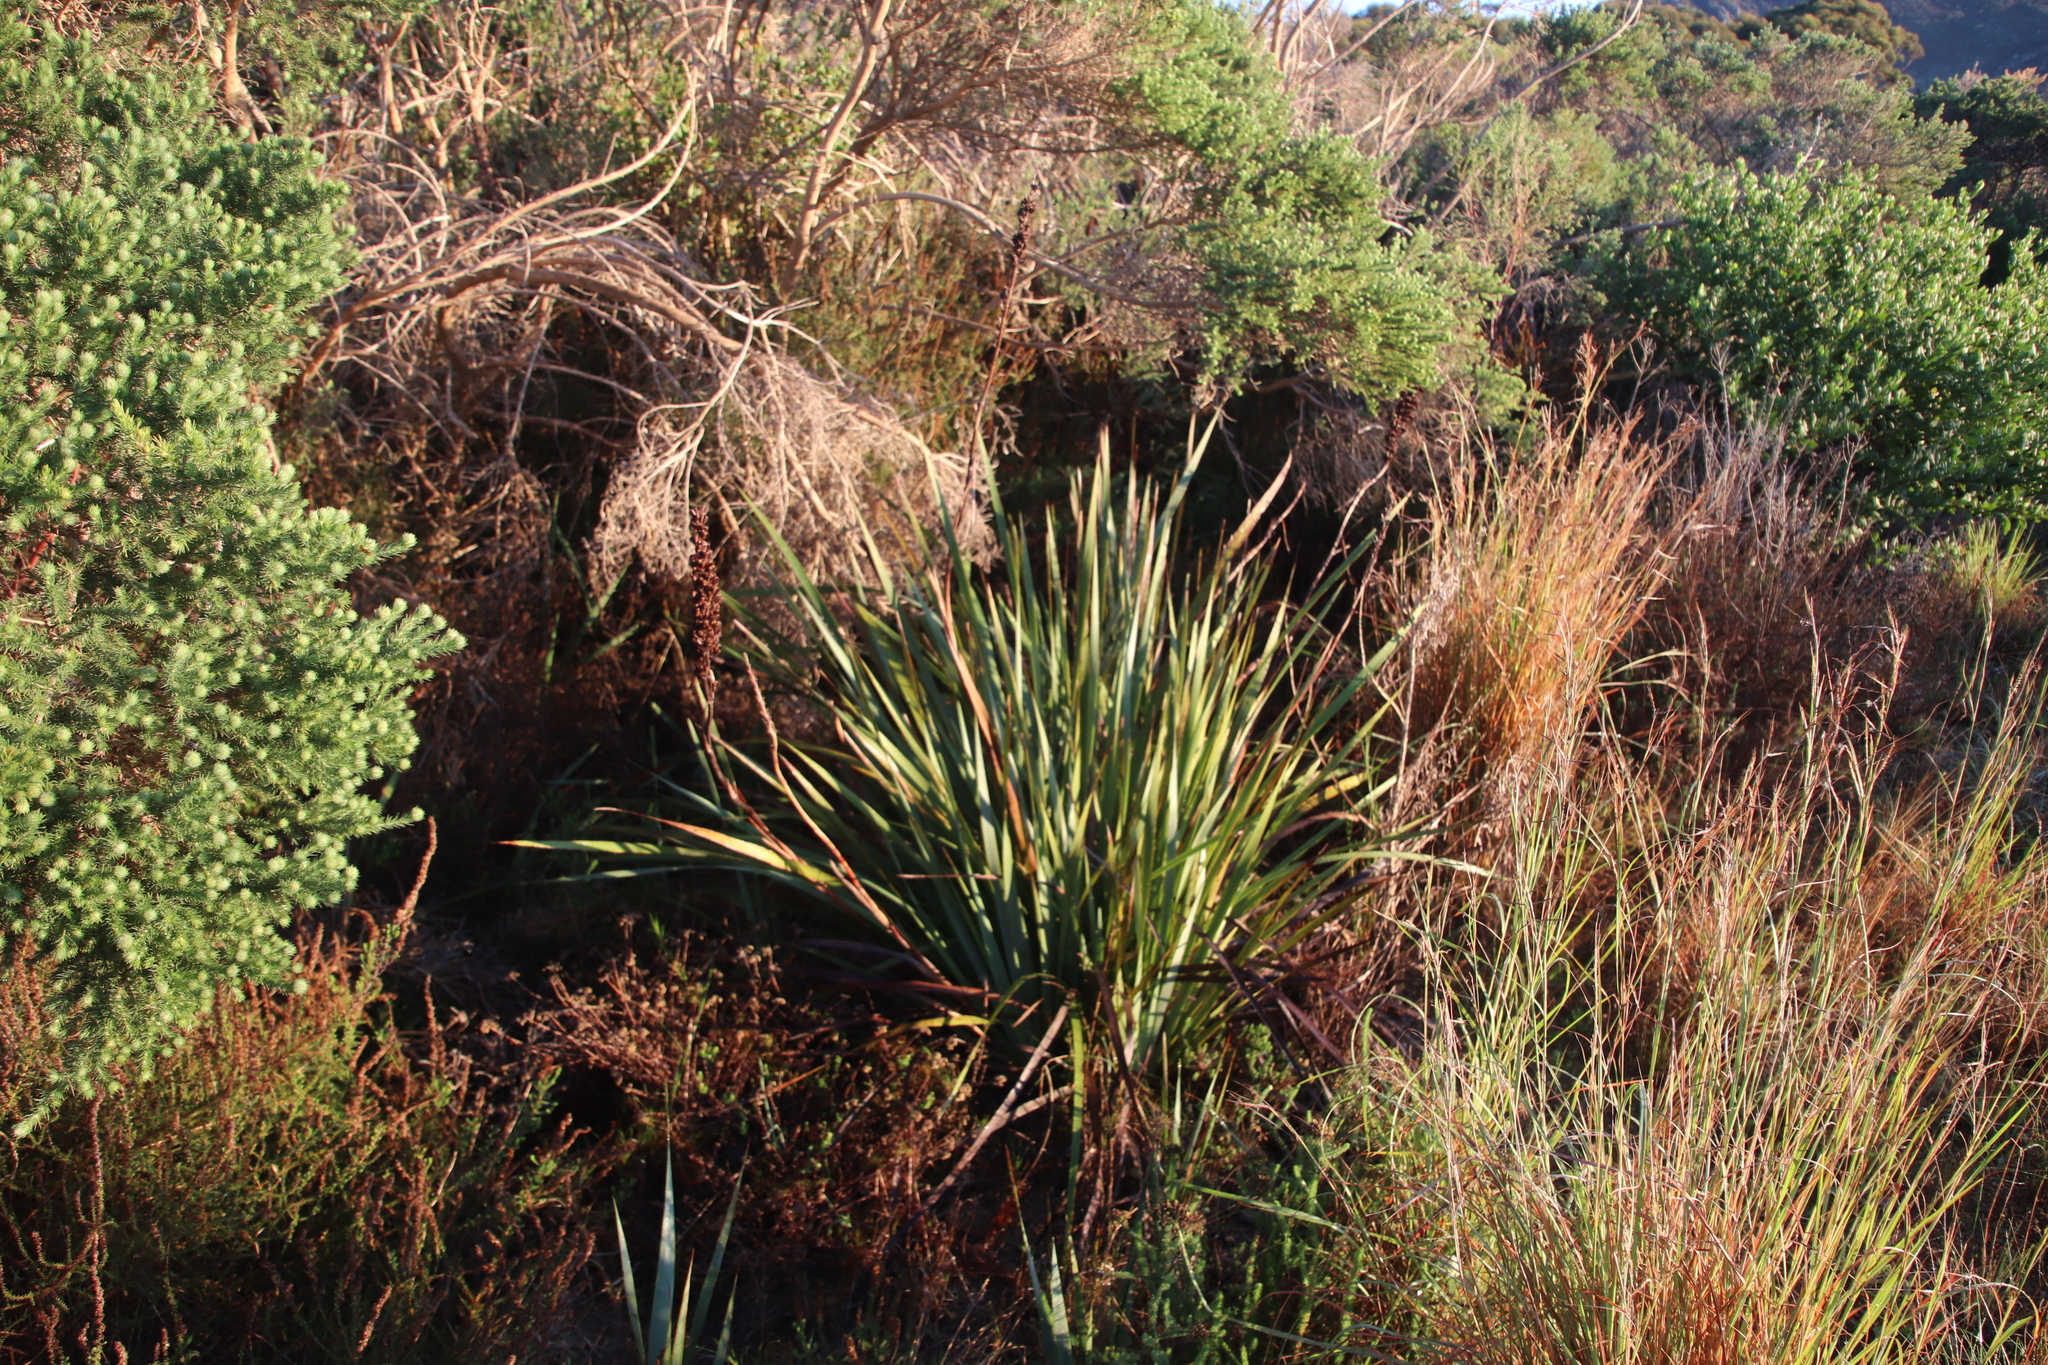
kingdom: Plantae
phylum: Tracheophyta
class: Liliopsida
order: Asparagales
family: Iridaceae
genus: Aristea
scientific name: Aristea capitata
